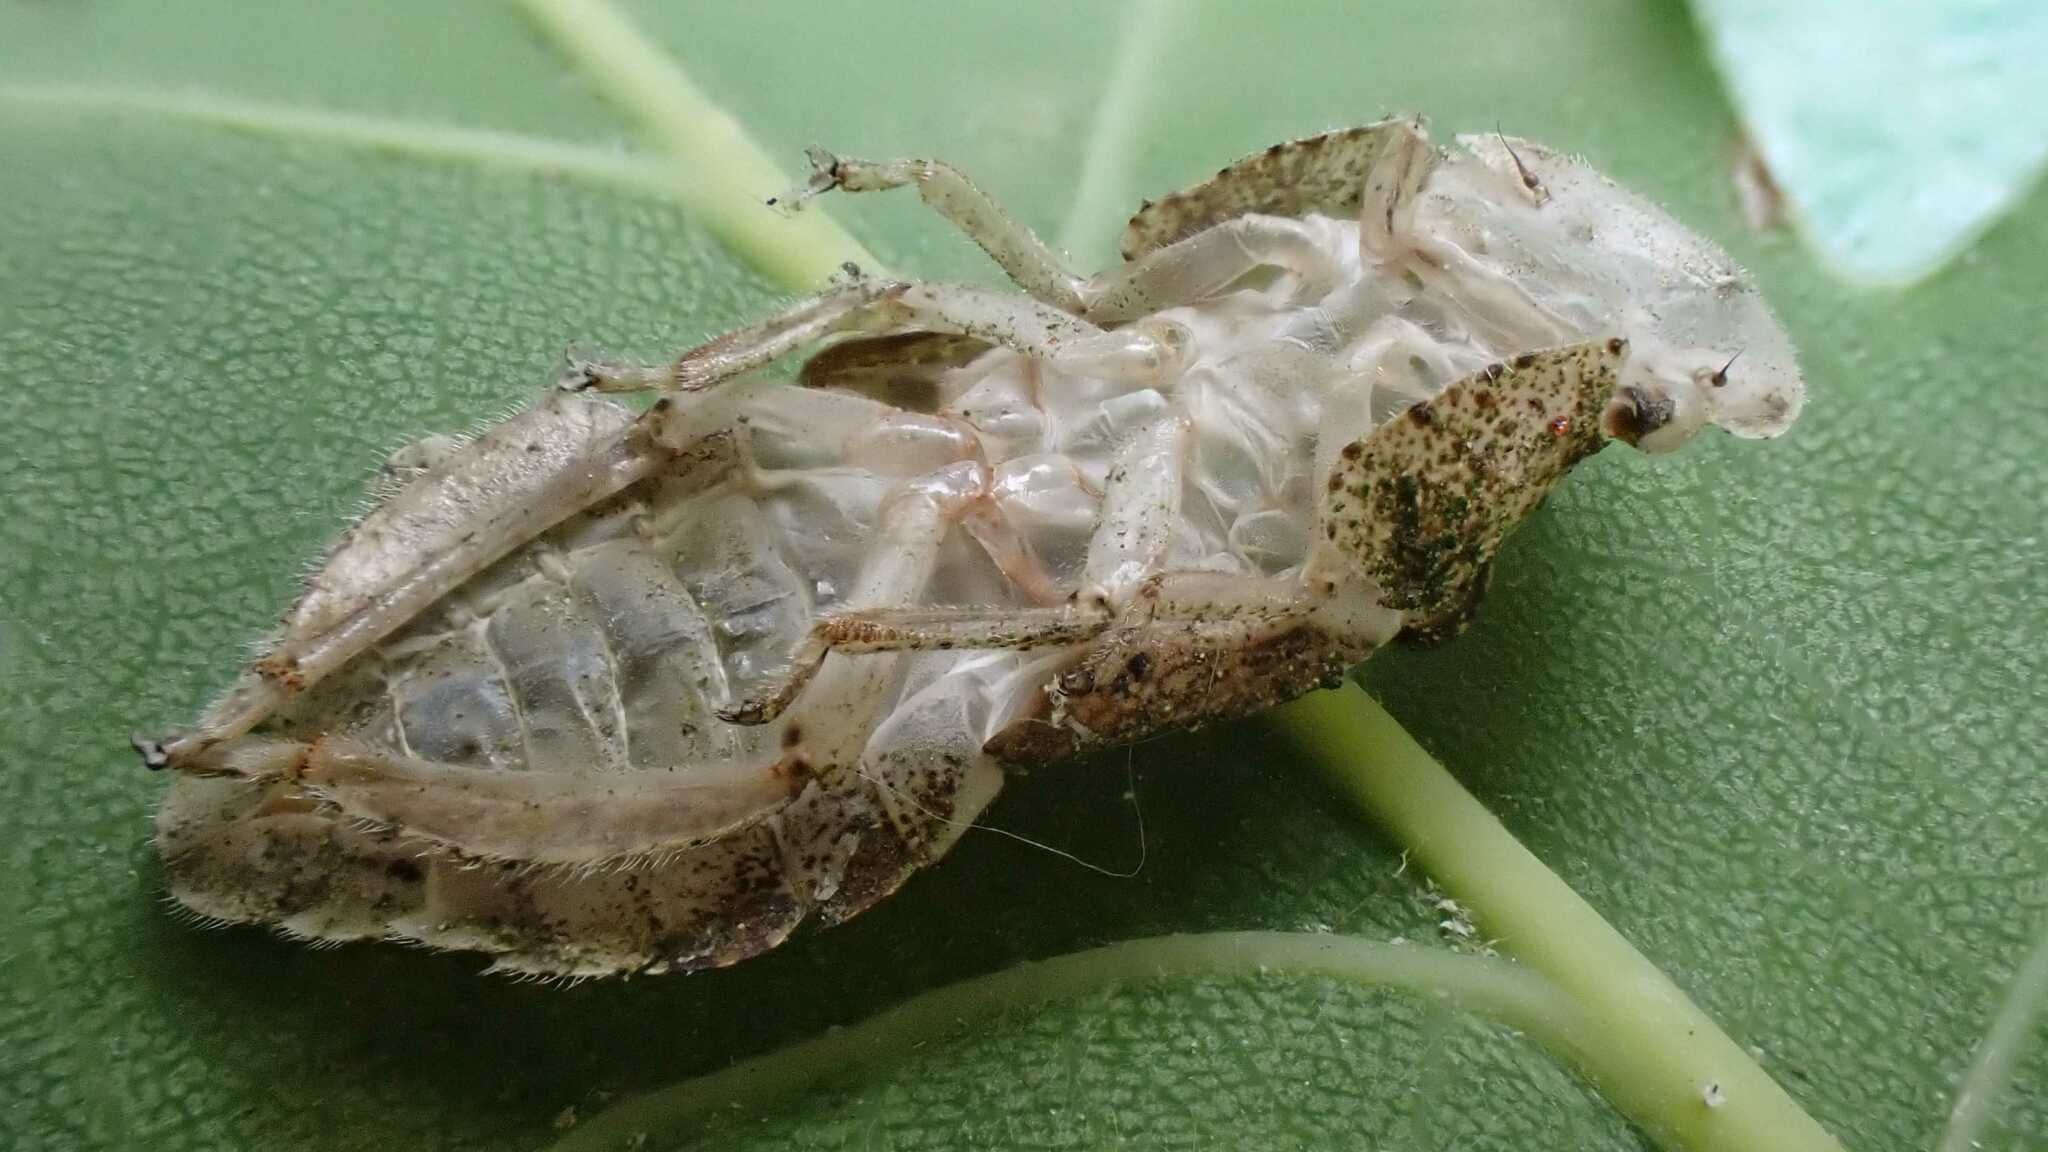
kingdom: Animalia
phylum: Arthropoda
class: Insecta
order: Hemiptera
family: Cicadellidae
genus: Ledra
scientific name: Ledra aurita
